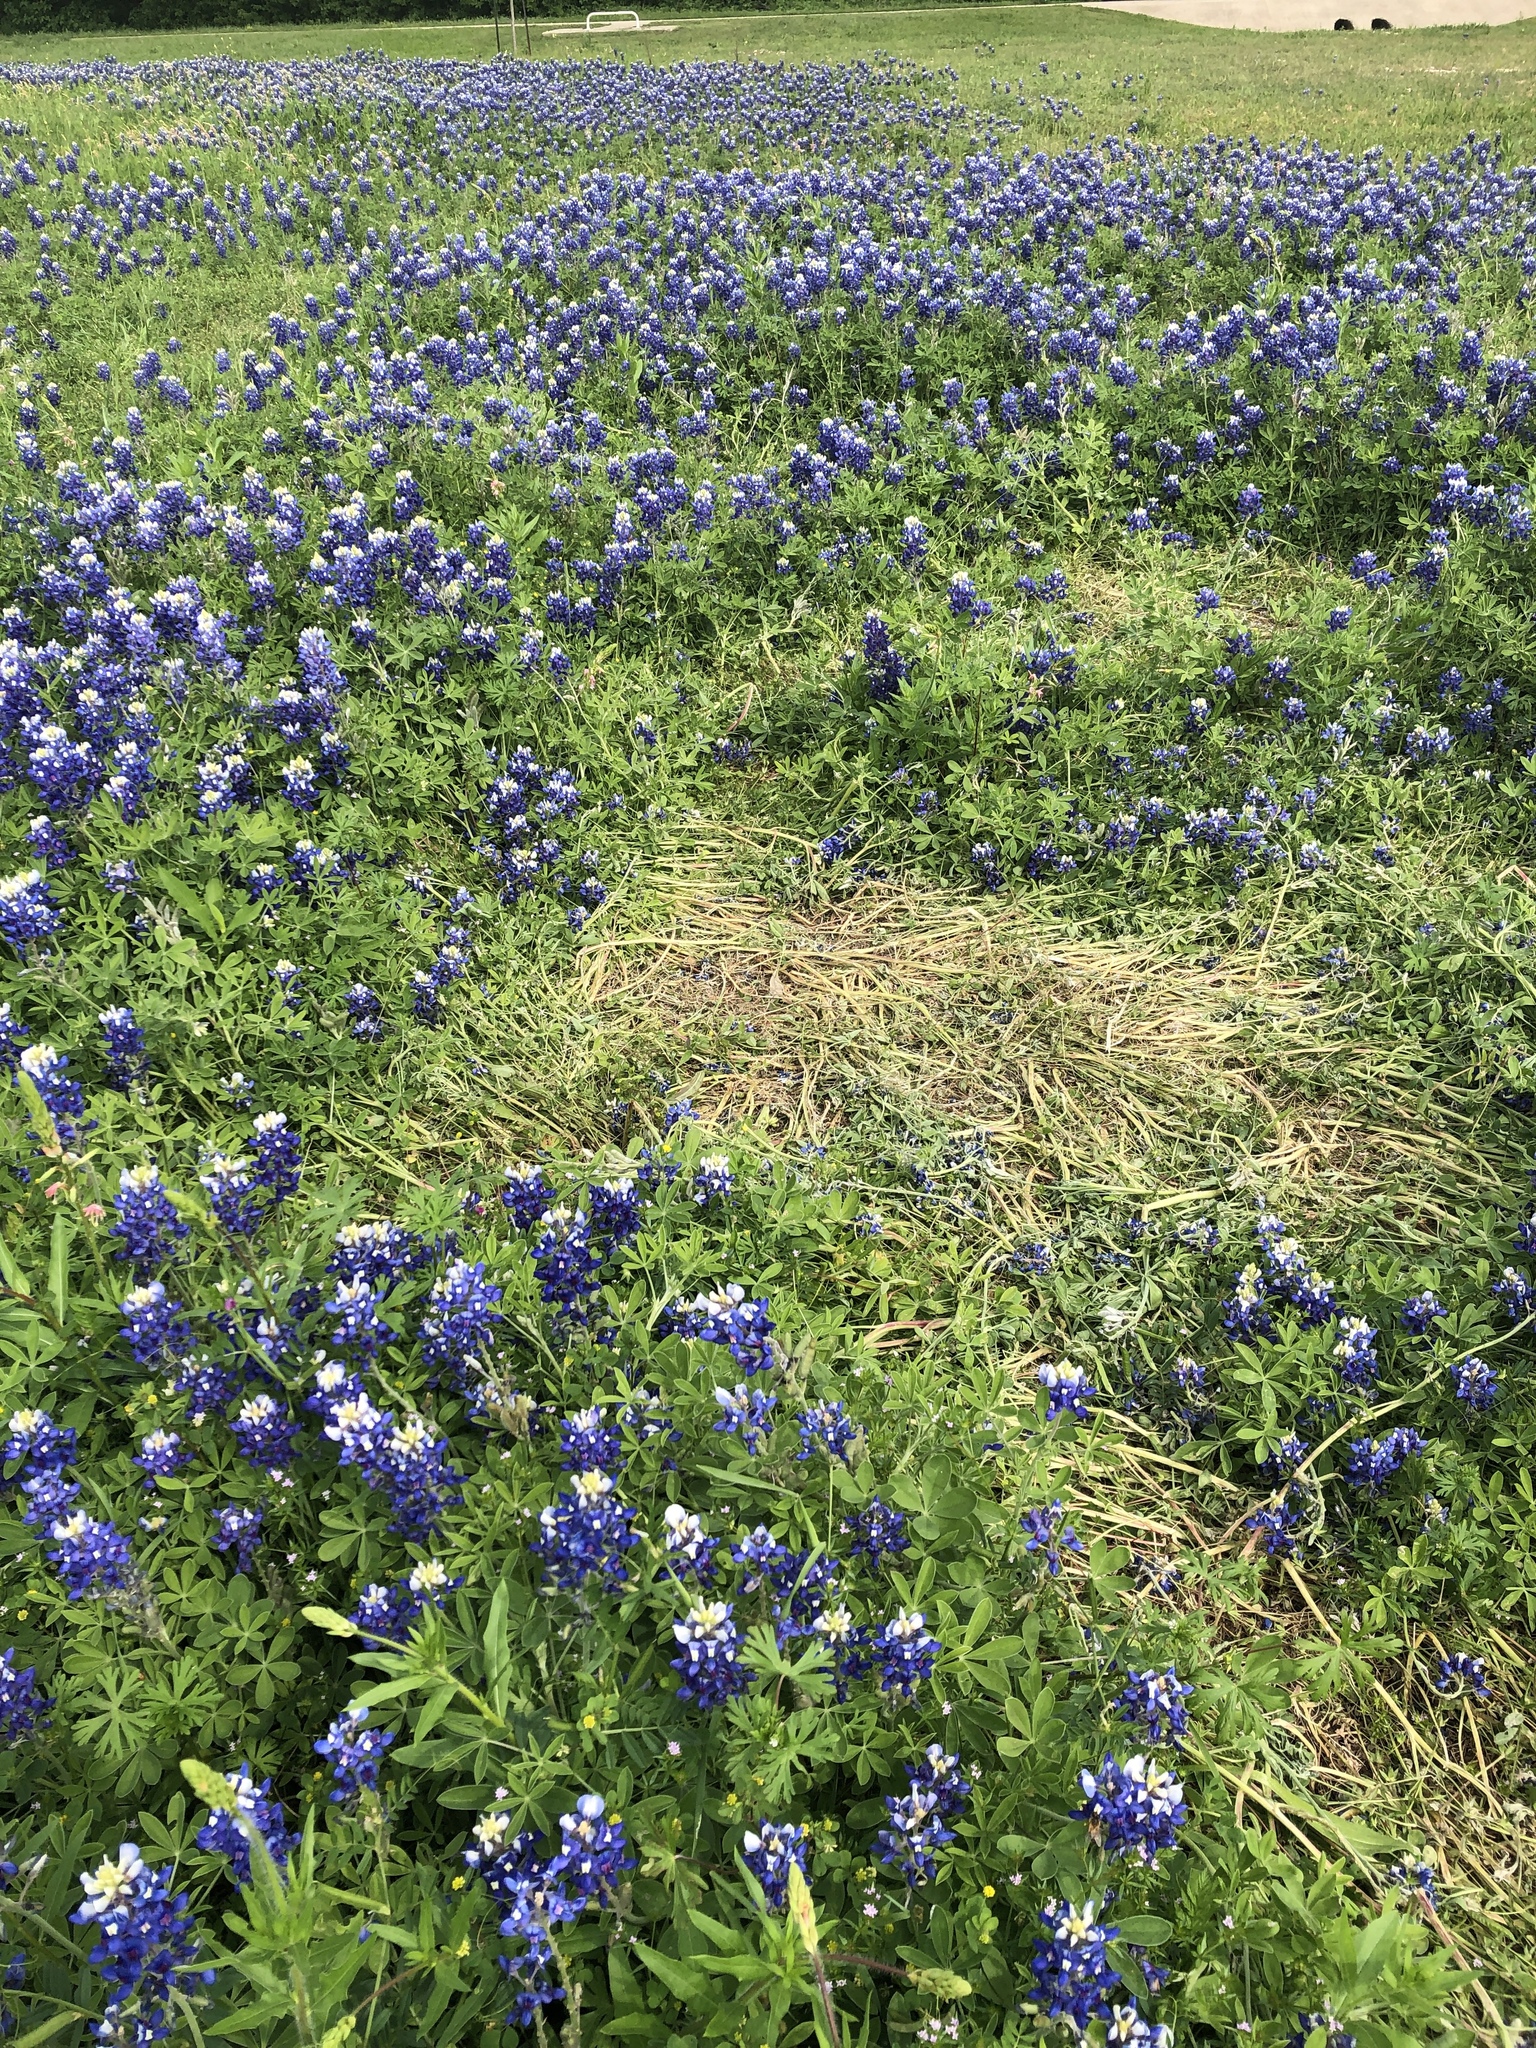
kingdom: Plantae
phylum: Tracheophyta
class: Magnoliopsida
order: Fabales
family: Fabaceae
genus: Lupinus
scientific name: Lupinus texensis
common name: Texas bluebonnet
